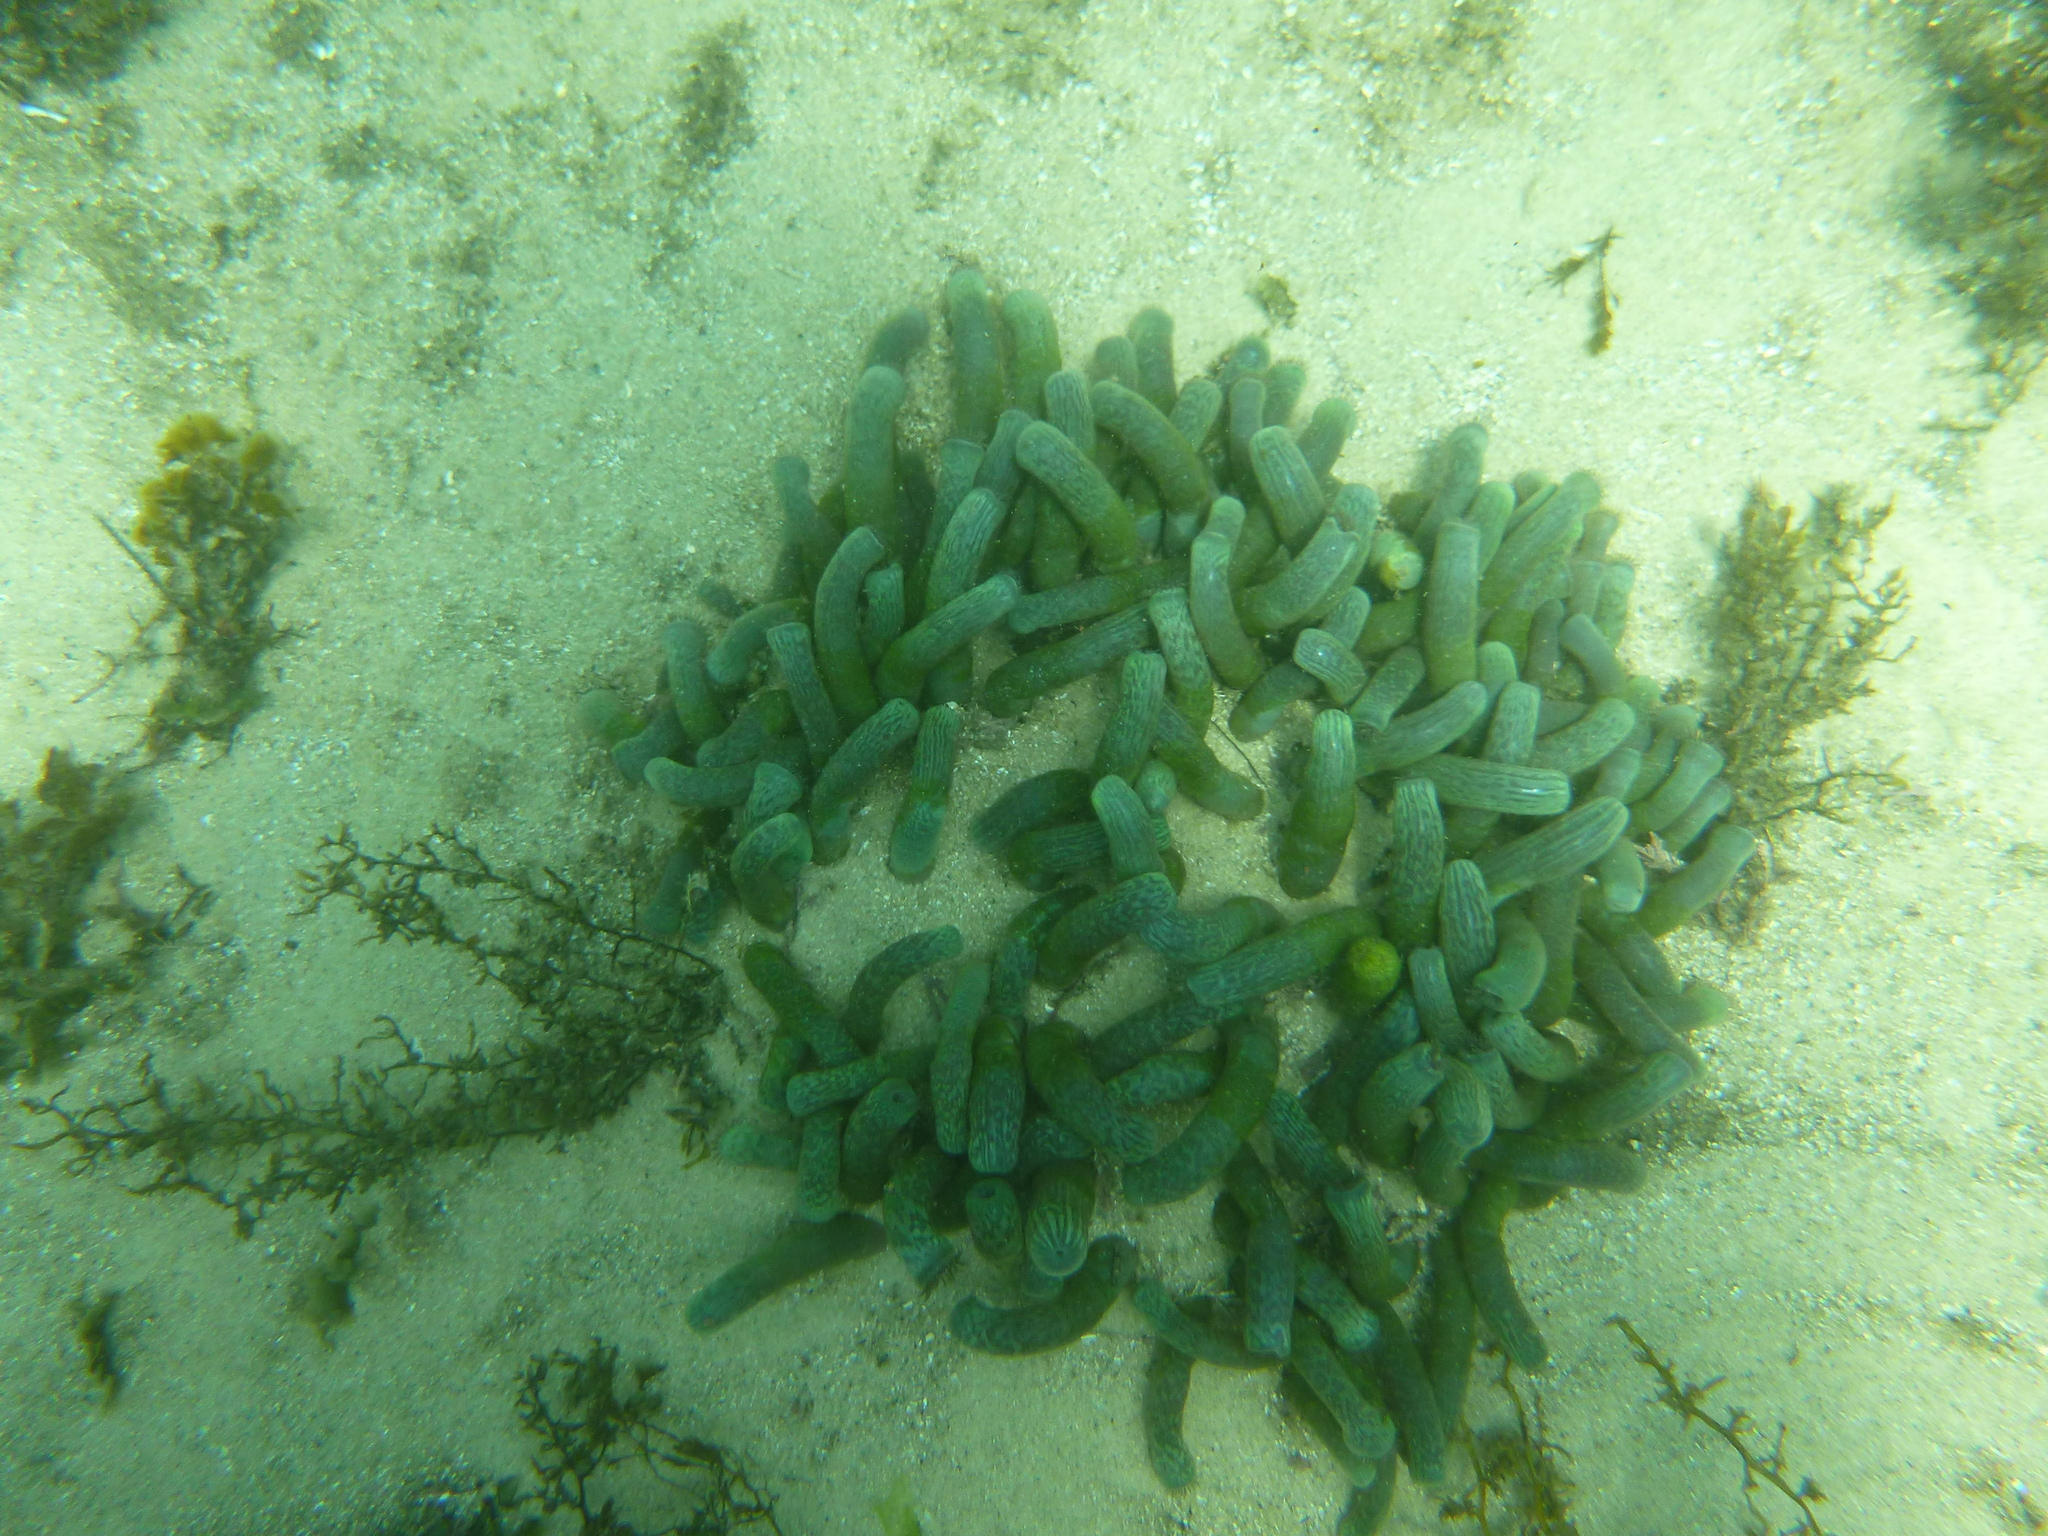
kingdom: Animalia
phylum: Cnidaria
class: Anthozoa
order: Zoantharia
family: Zoanthidae
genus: Isaurus
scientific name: Isaurus cliftoni
